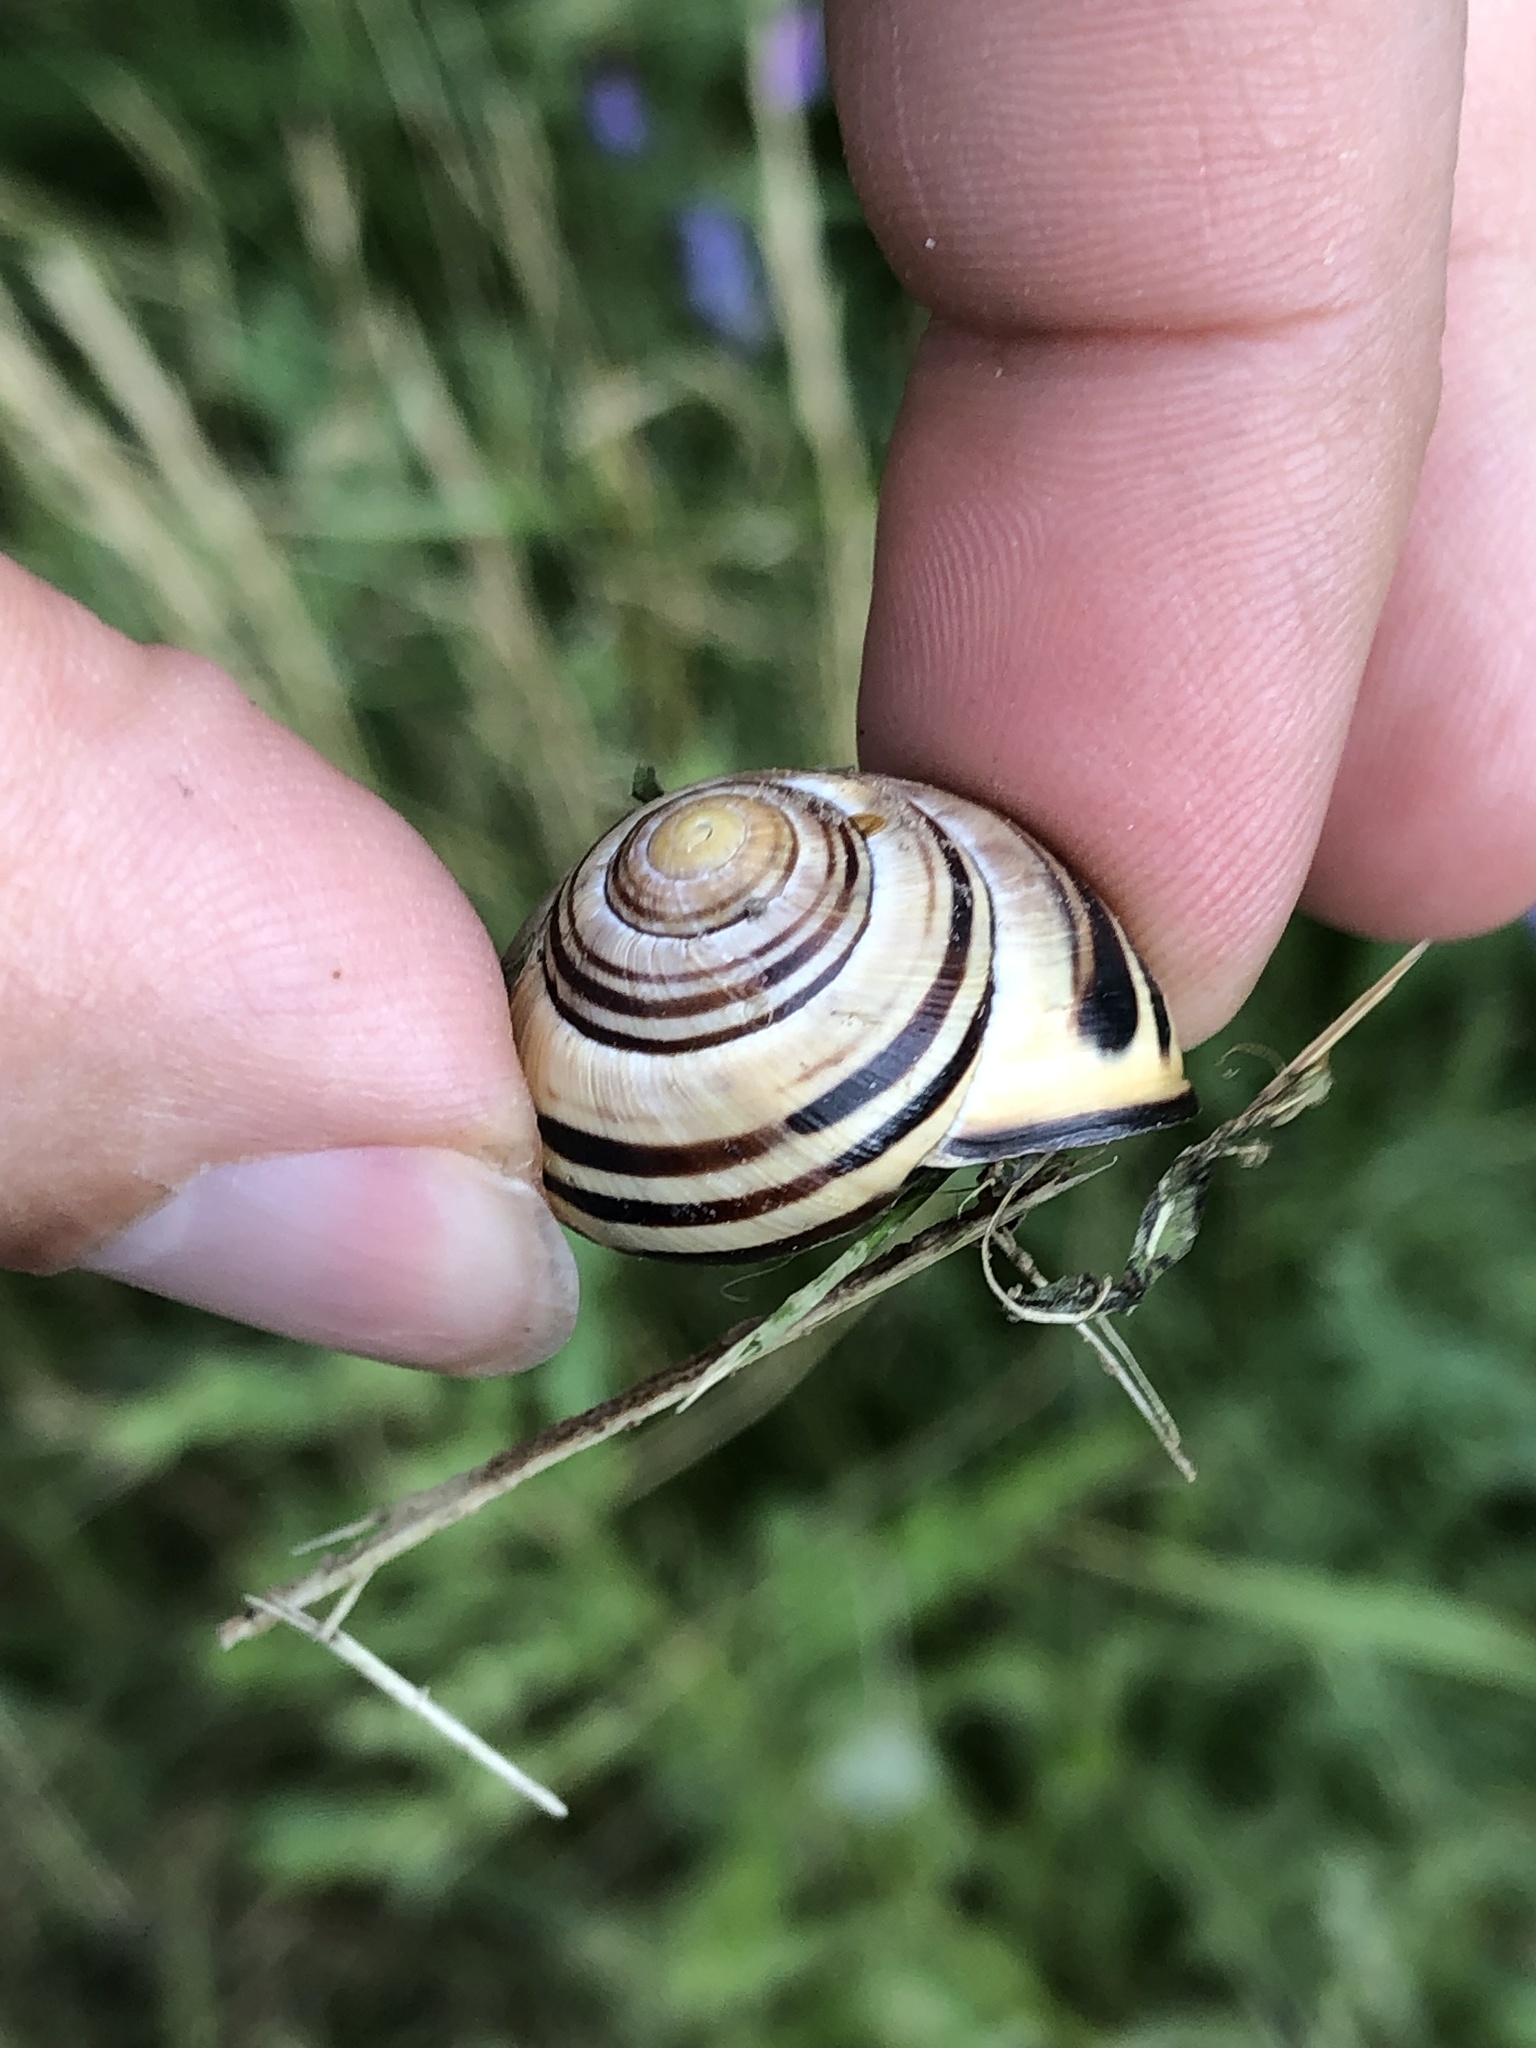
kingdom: Animalia
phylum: Mollusca
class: Gastropoda
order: Stylommatophora
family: Helicidae
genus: Cepaea
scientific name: Cepaea nemoralis
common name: Grovesnail
